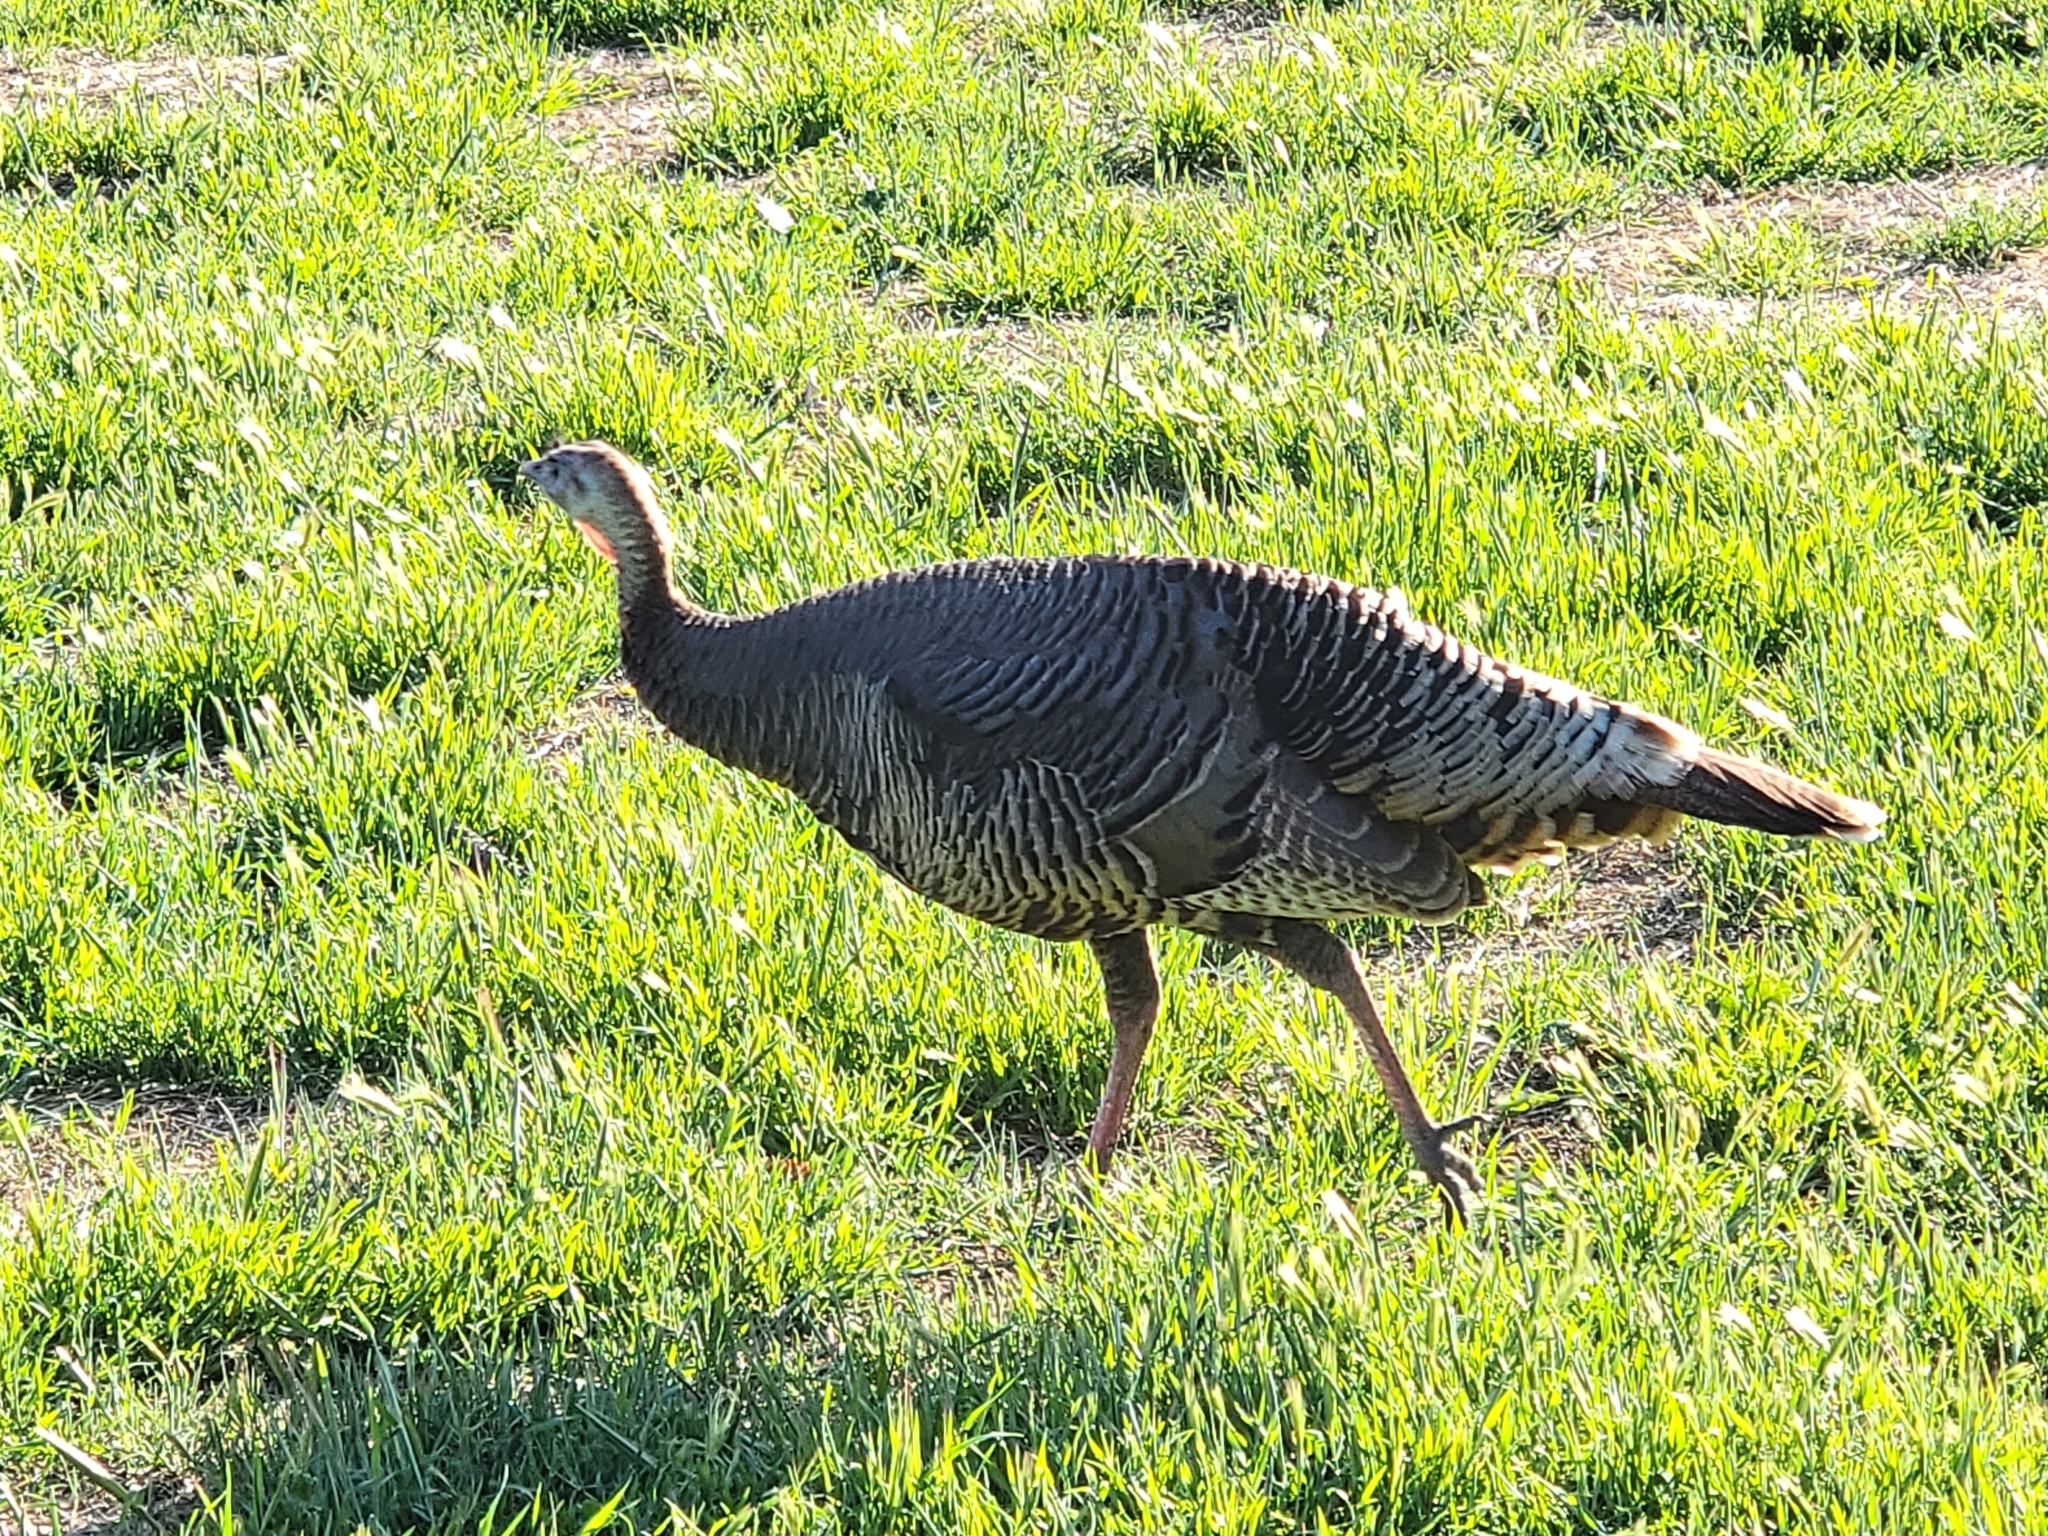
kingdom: Animalia
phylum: Chordata
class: Aves
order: Galliformes
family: Phasianidae
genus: Meleagris
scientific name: Meleagris gallopavo
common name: Wild turkey
